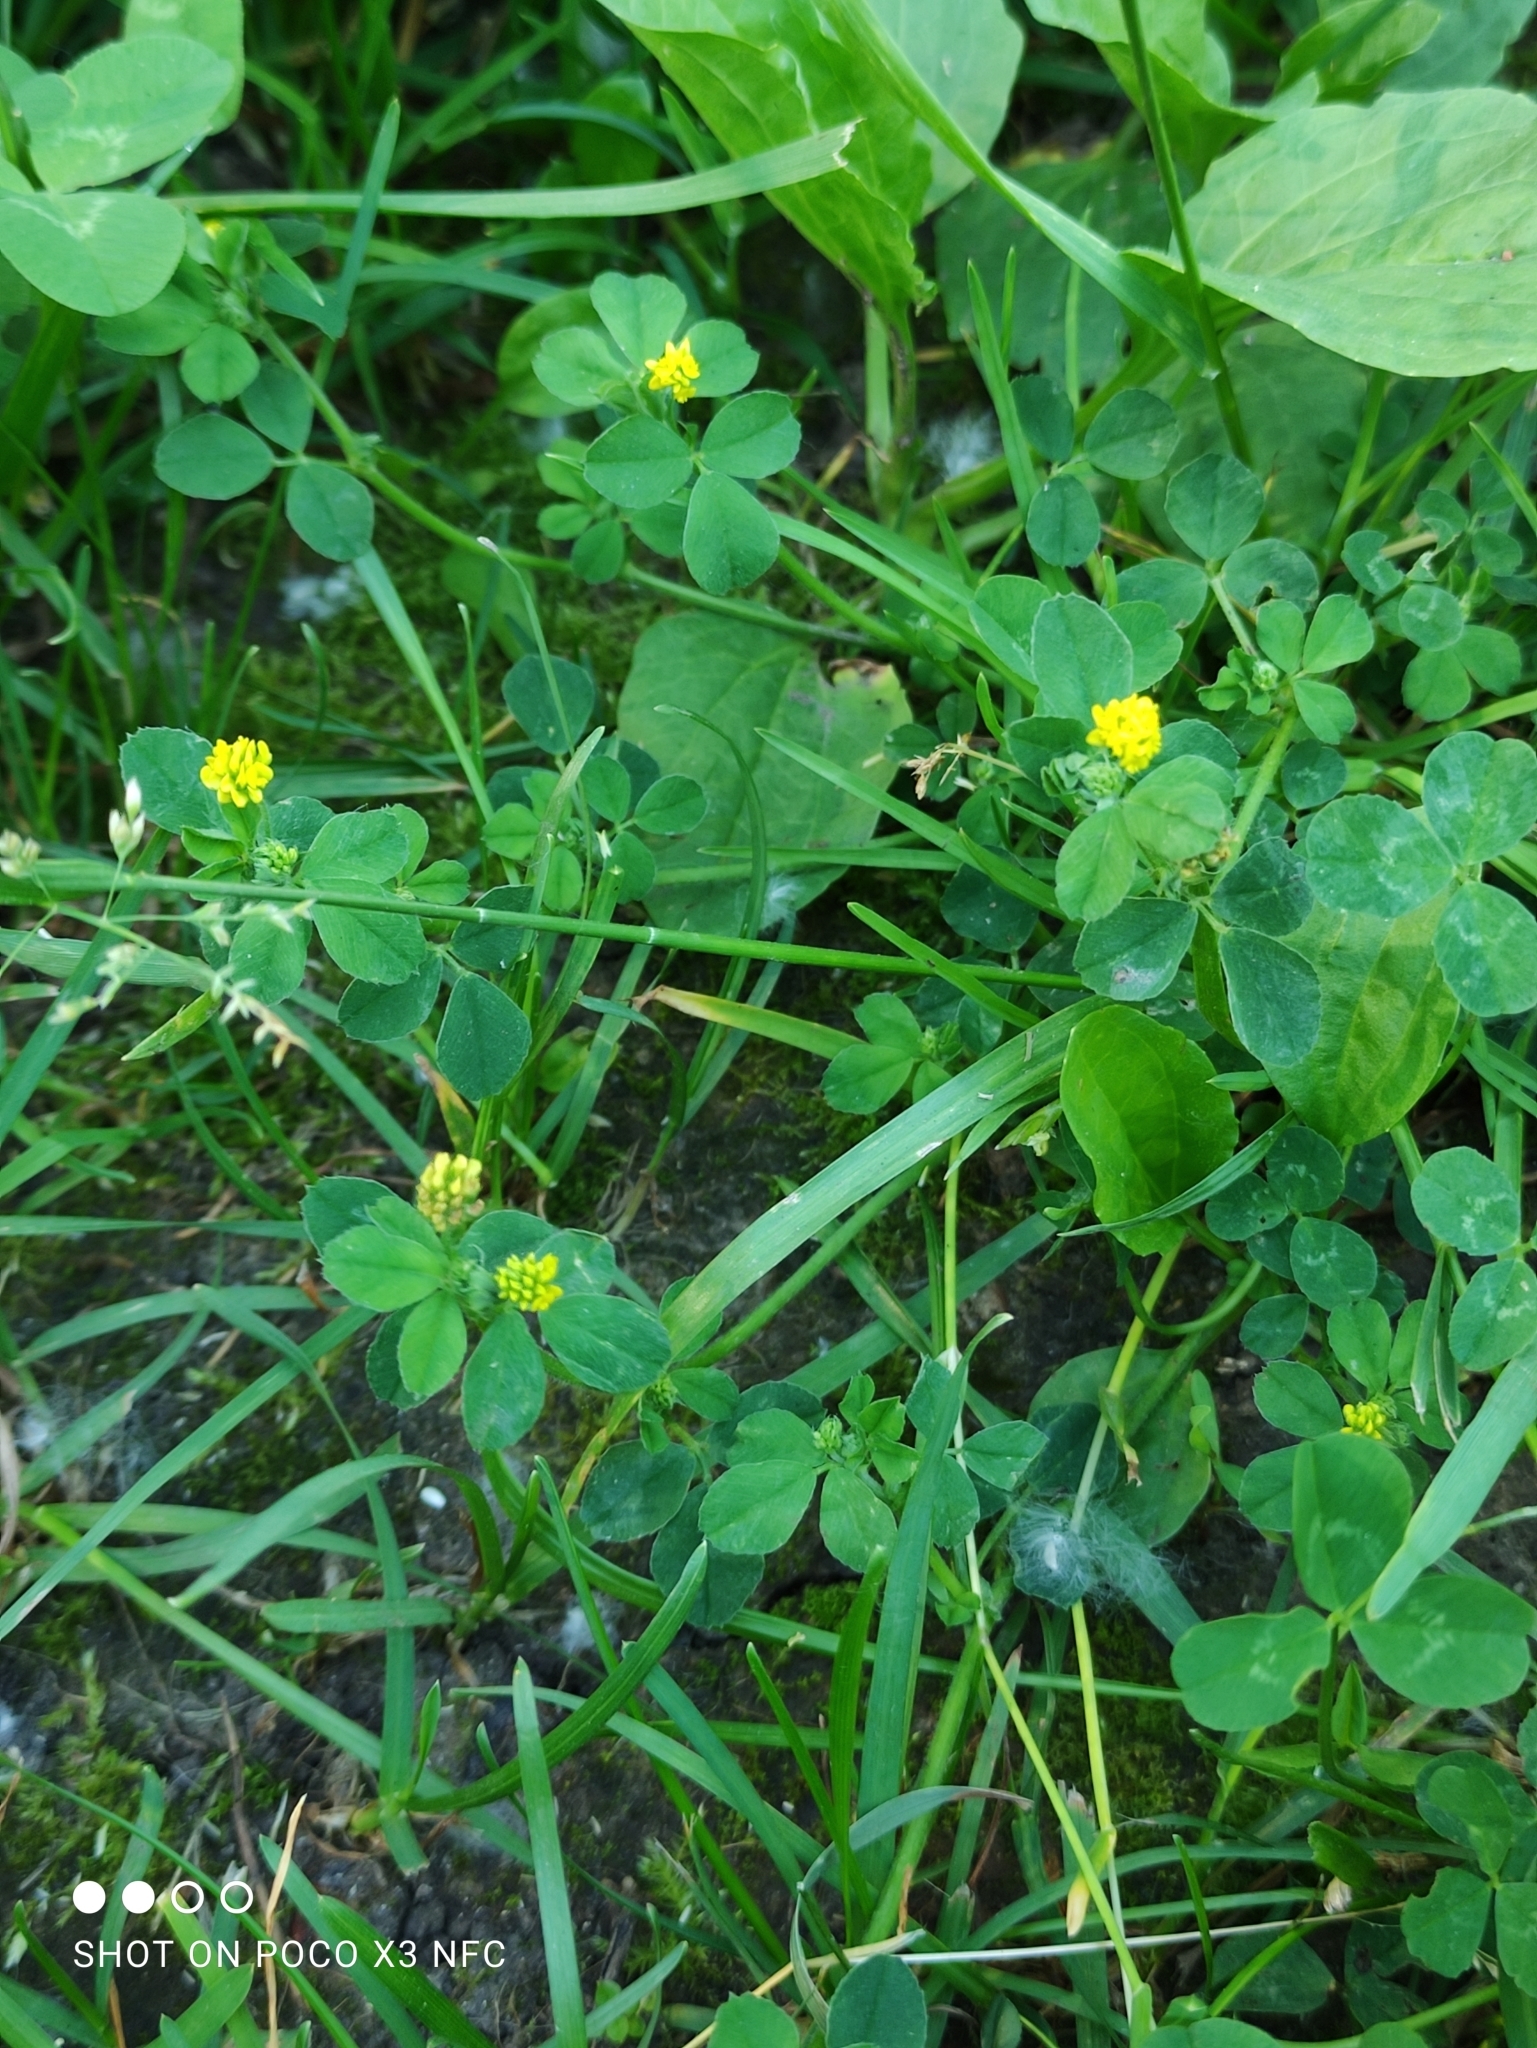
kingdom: Plantae
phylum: Tracheophyta
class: Magnoliopsida
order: Fabales
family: Fabaceae
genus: Medicago
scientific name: Medicago lupulina
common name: Black medick
